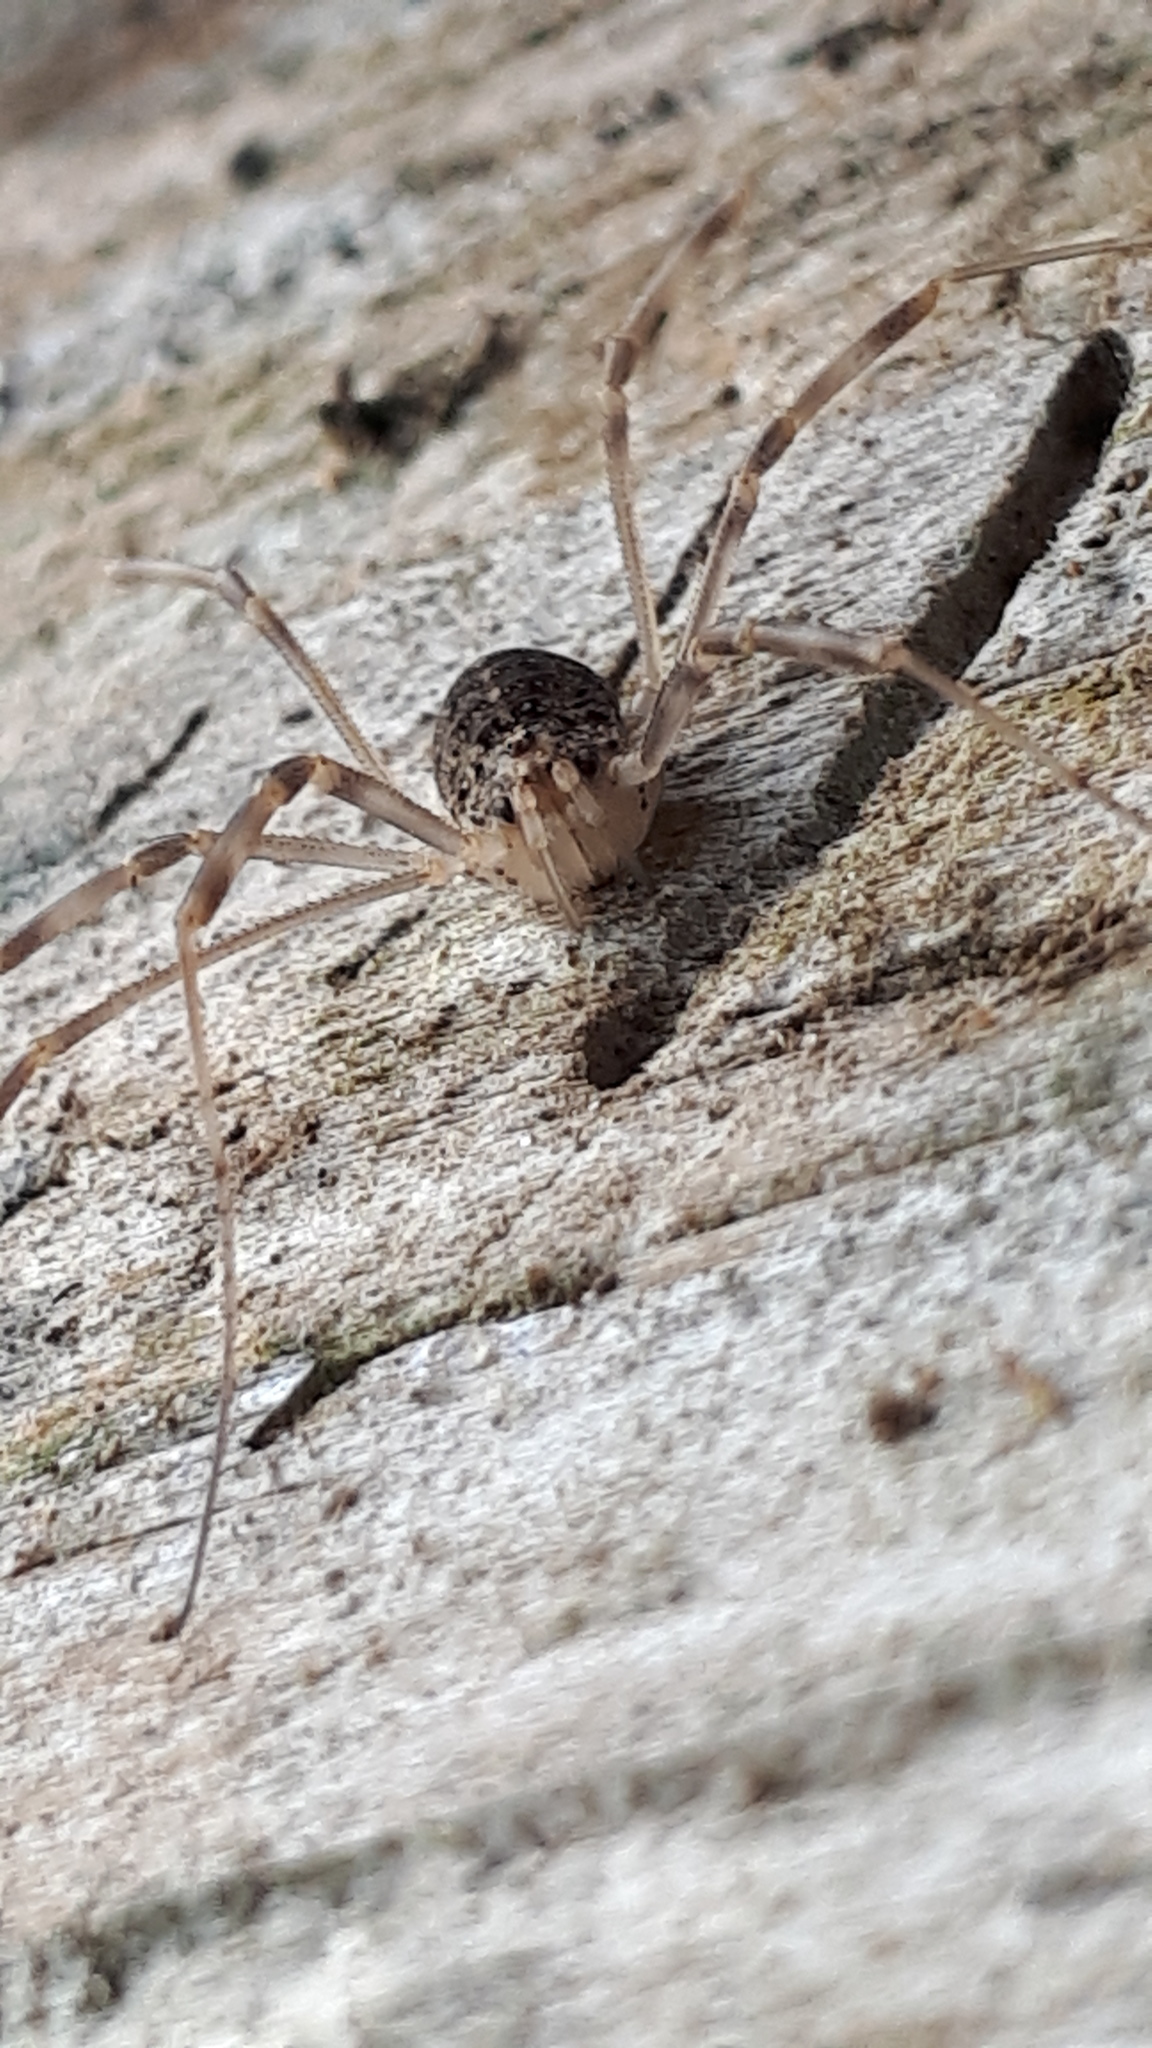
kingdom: Animalia
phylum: Arthropoda
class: Arachnida
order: Opiliones
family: Phalangiidae
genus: Opilio
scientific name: Opilio saxatilis
